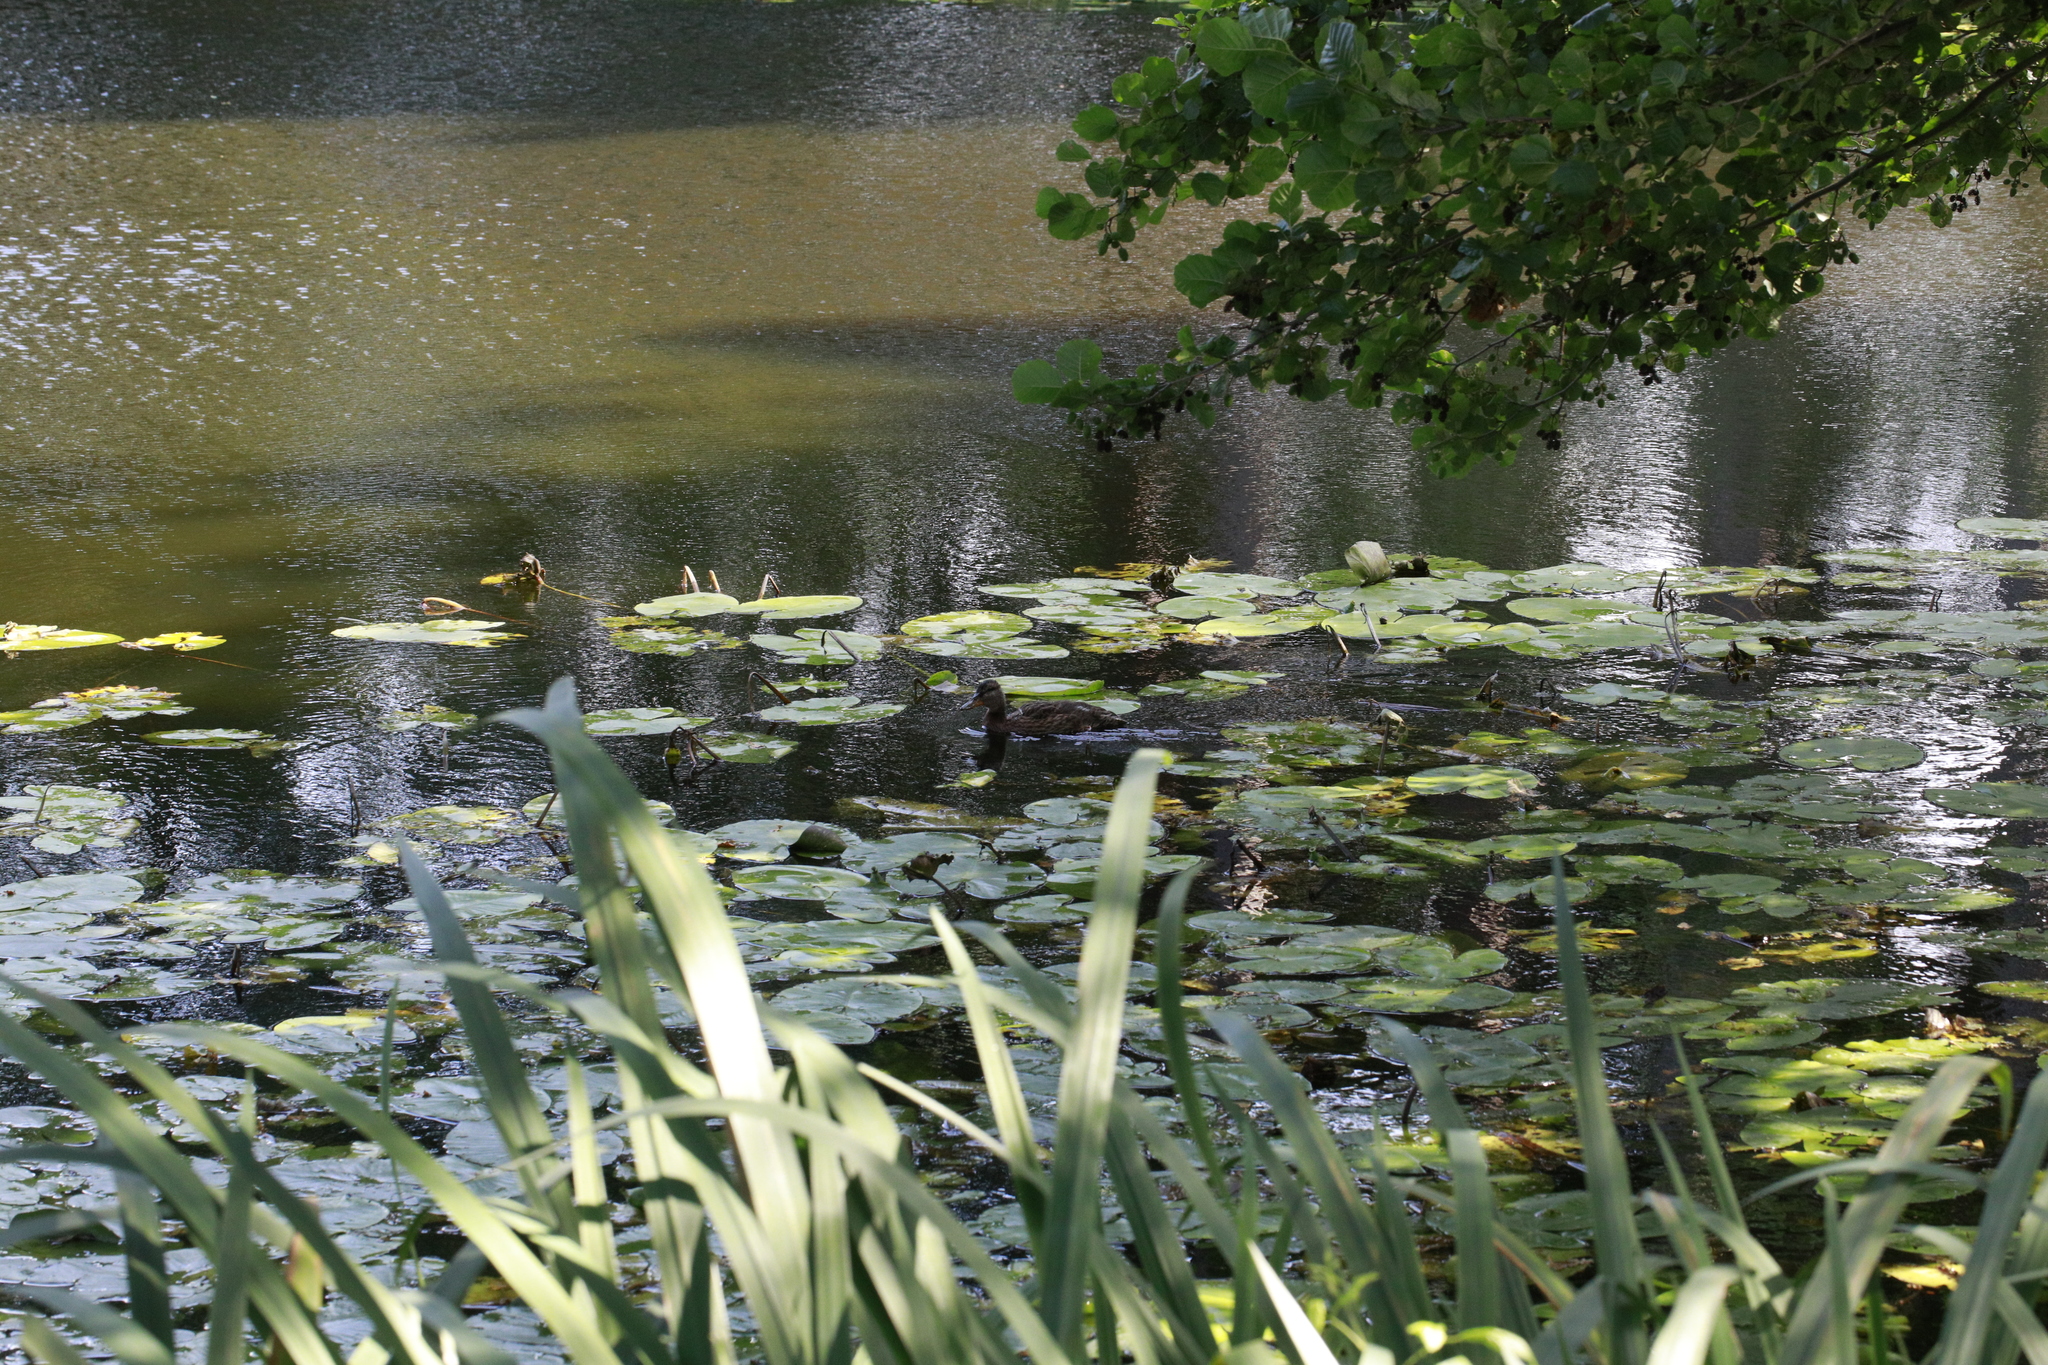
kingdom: Animalia
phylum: Chordata
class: Aves
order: Anseriformes
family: Anatidae
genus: Anas
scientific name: Anas platyrhynchos
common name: Mallard
